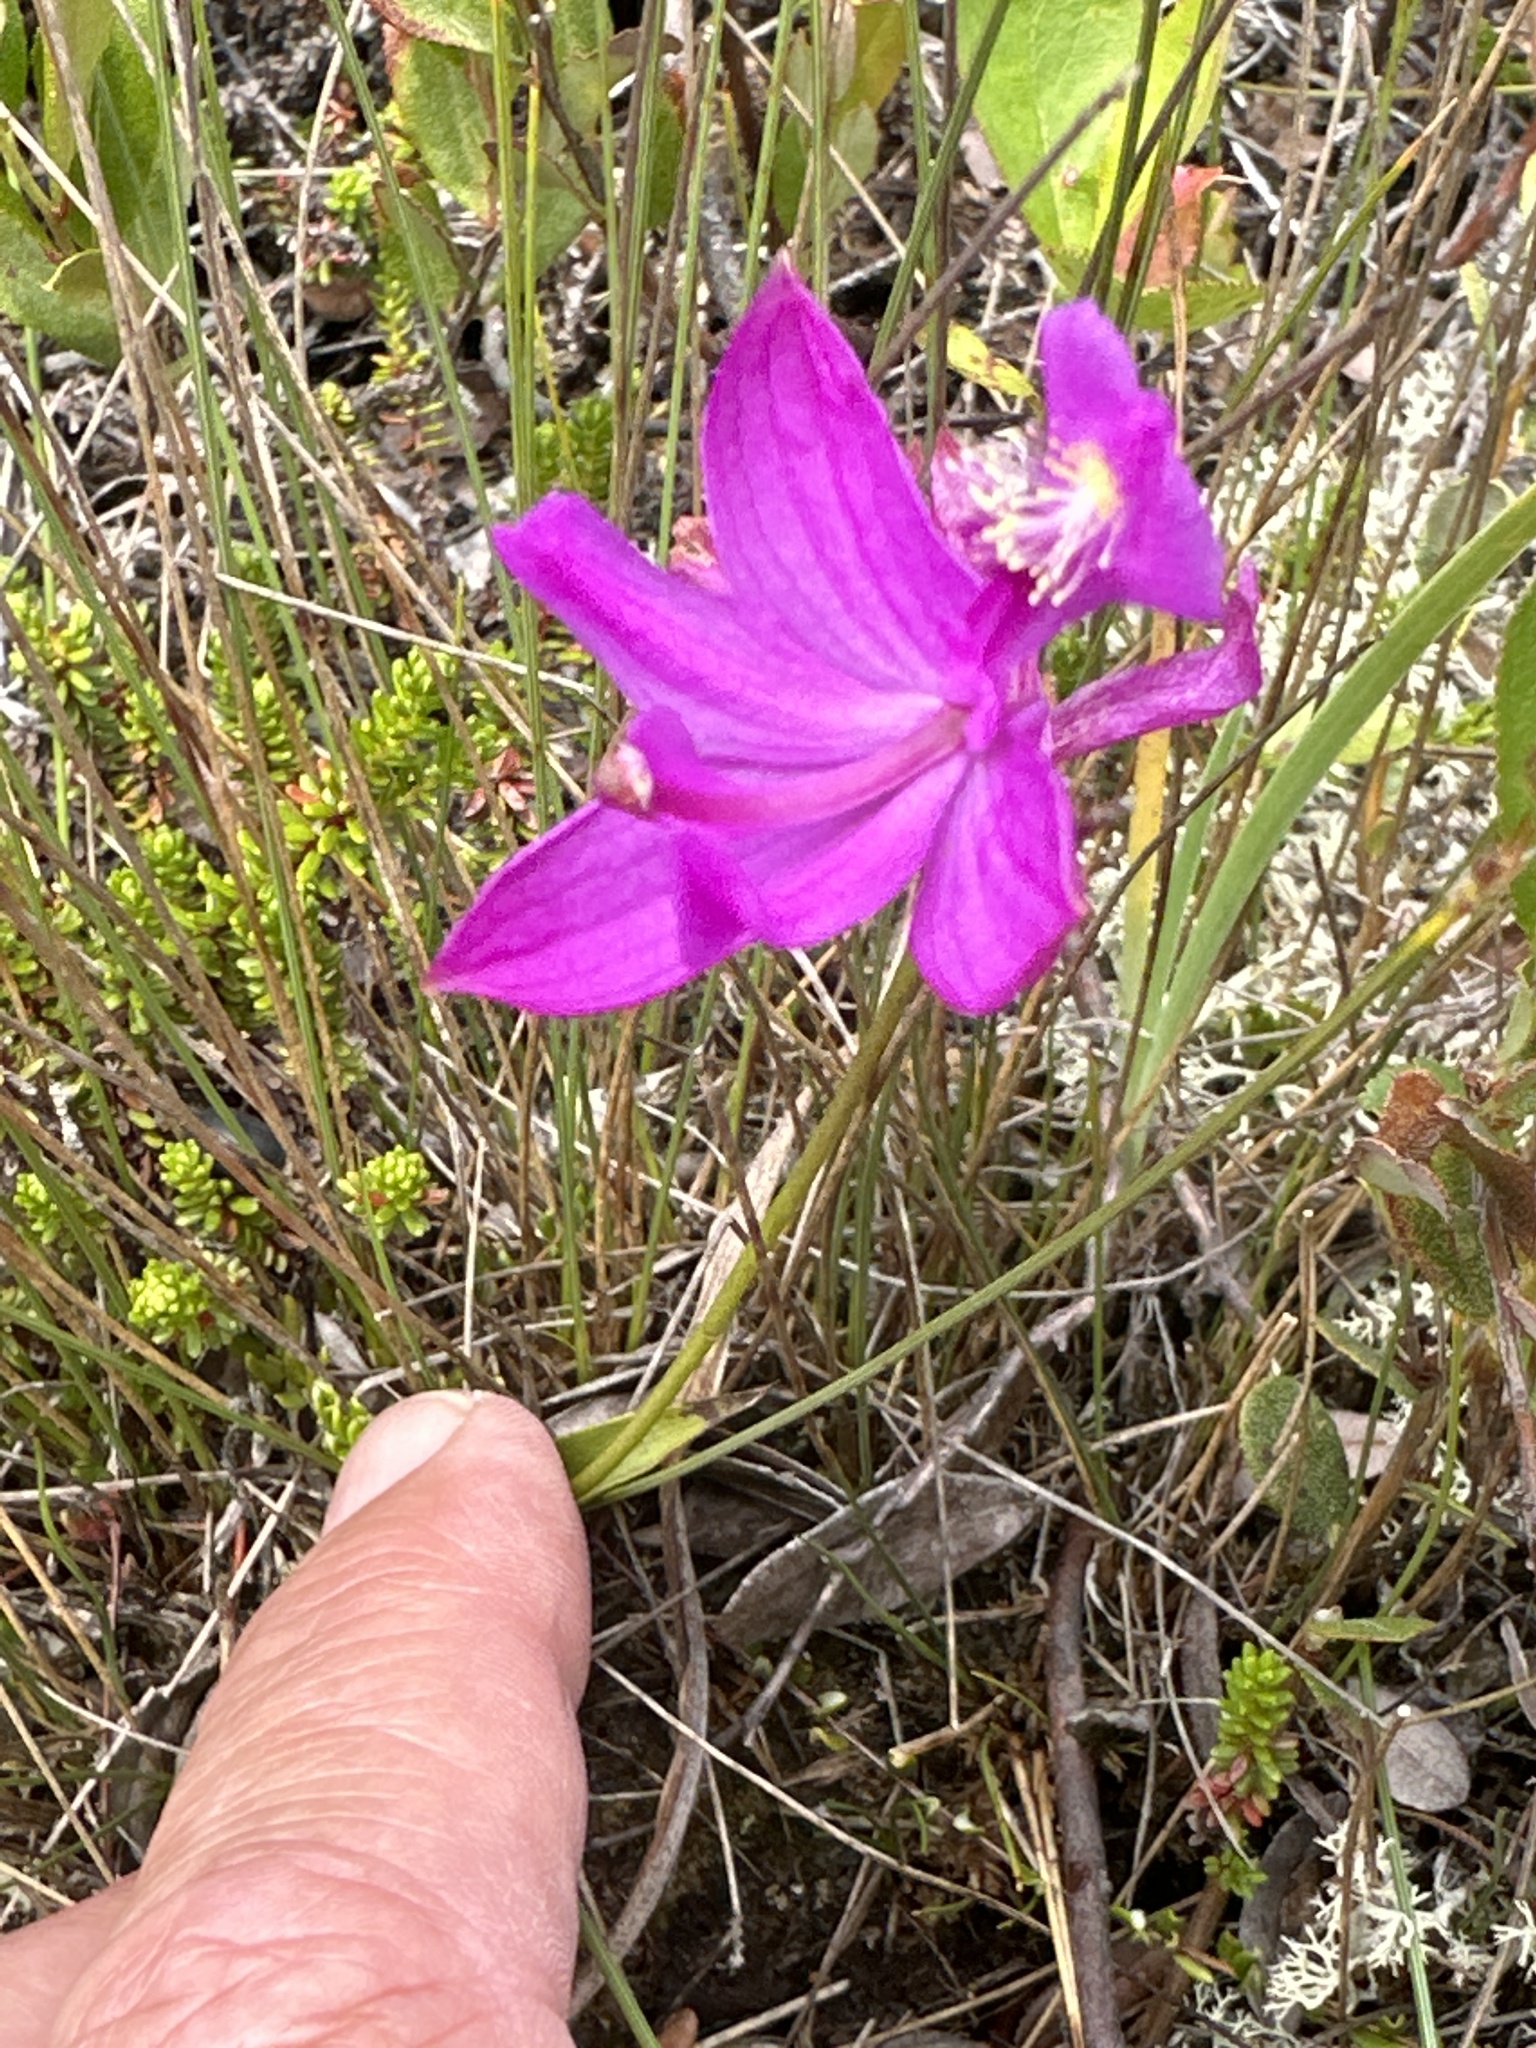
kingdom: Plantae
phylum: Tracheophyta
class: Liliopsida
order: Asparagales
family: Orchidaceae
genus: Calopogon
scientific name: Calopogon tuberosus
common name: Grass-pink
